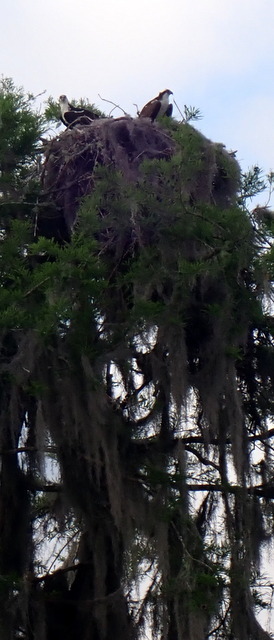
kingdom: Animalia
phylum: Chordata
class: Aves
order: Accipitriformes
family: Pandionidae
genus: Pandion
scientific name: Pandion haliaetus
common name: Osprey
